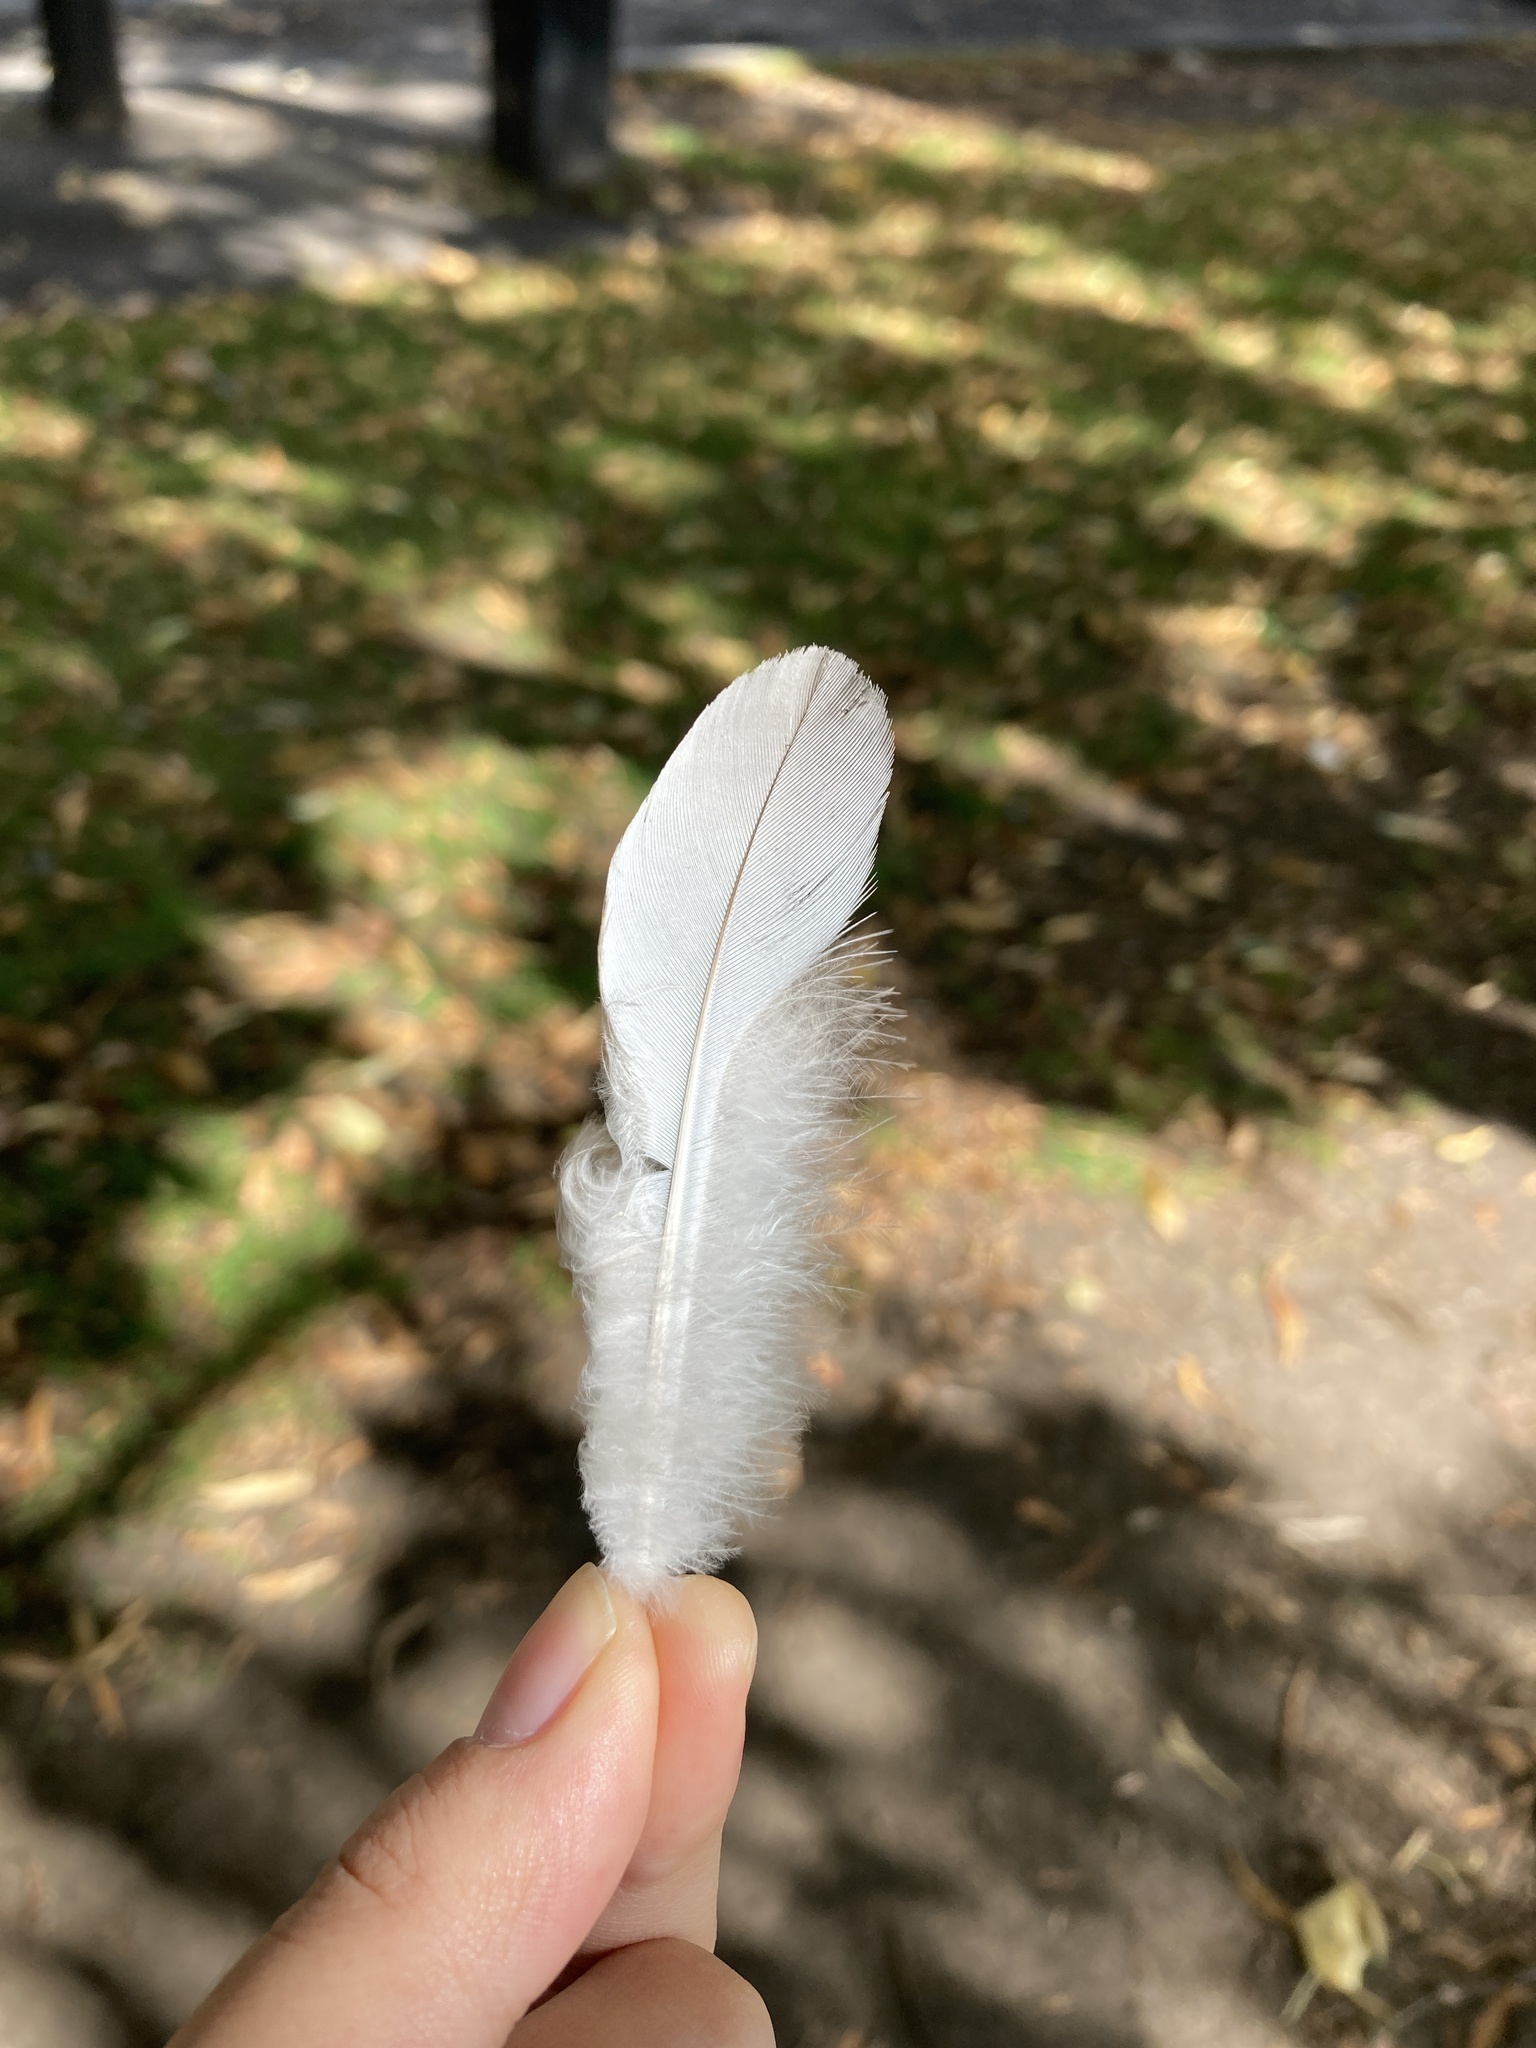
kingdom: Animalia
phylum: Chordata
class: Aves
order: Columbiformes
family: Columbidae
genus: Columba
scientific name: Columba palumbus
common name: Common wood pigeon
